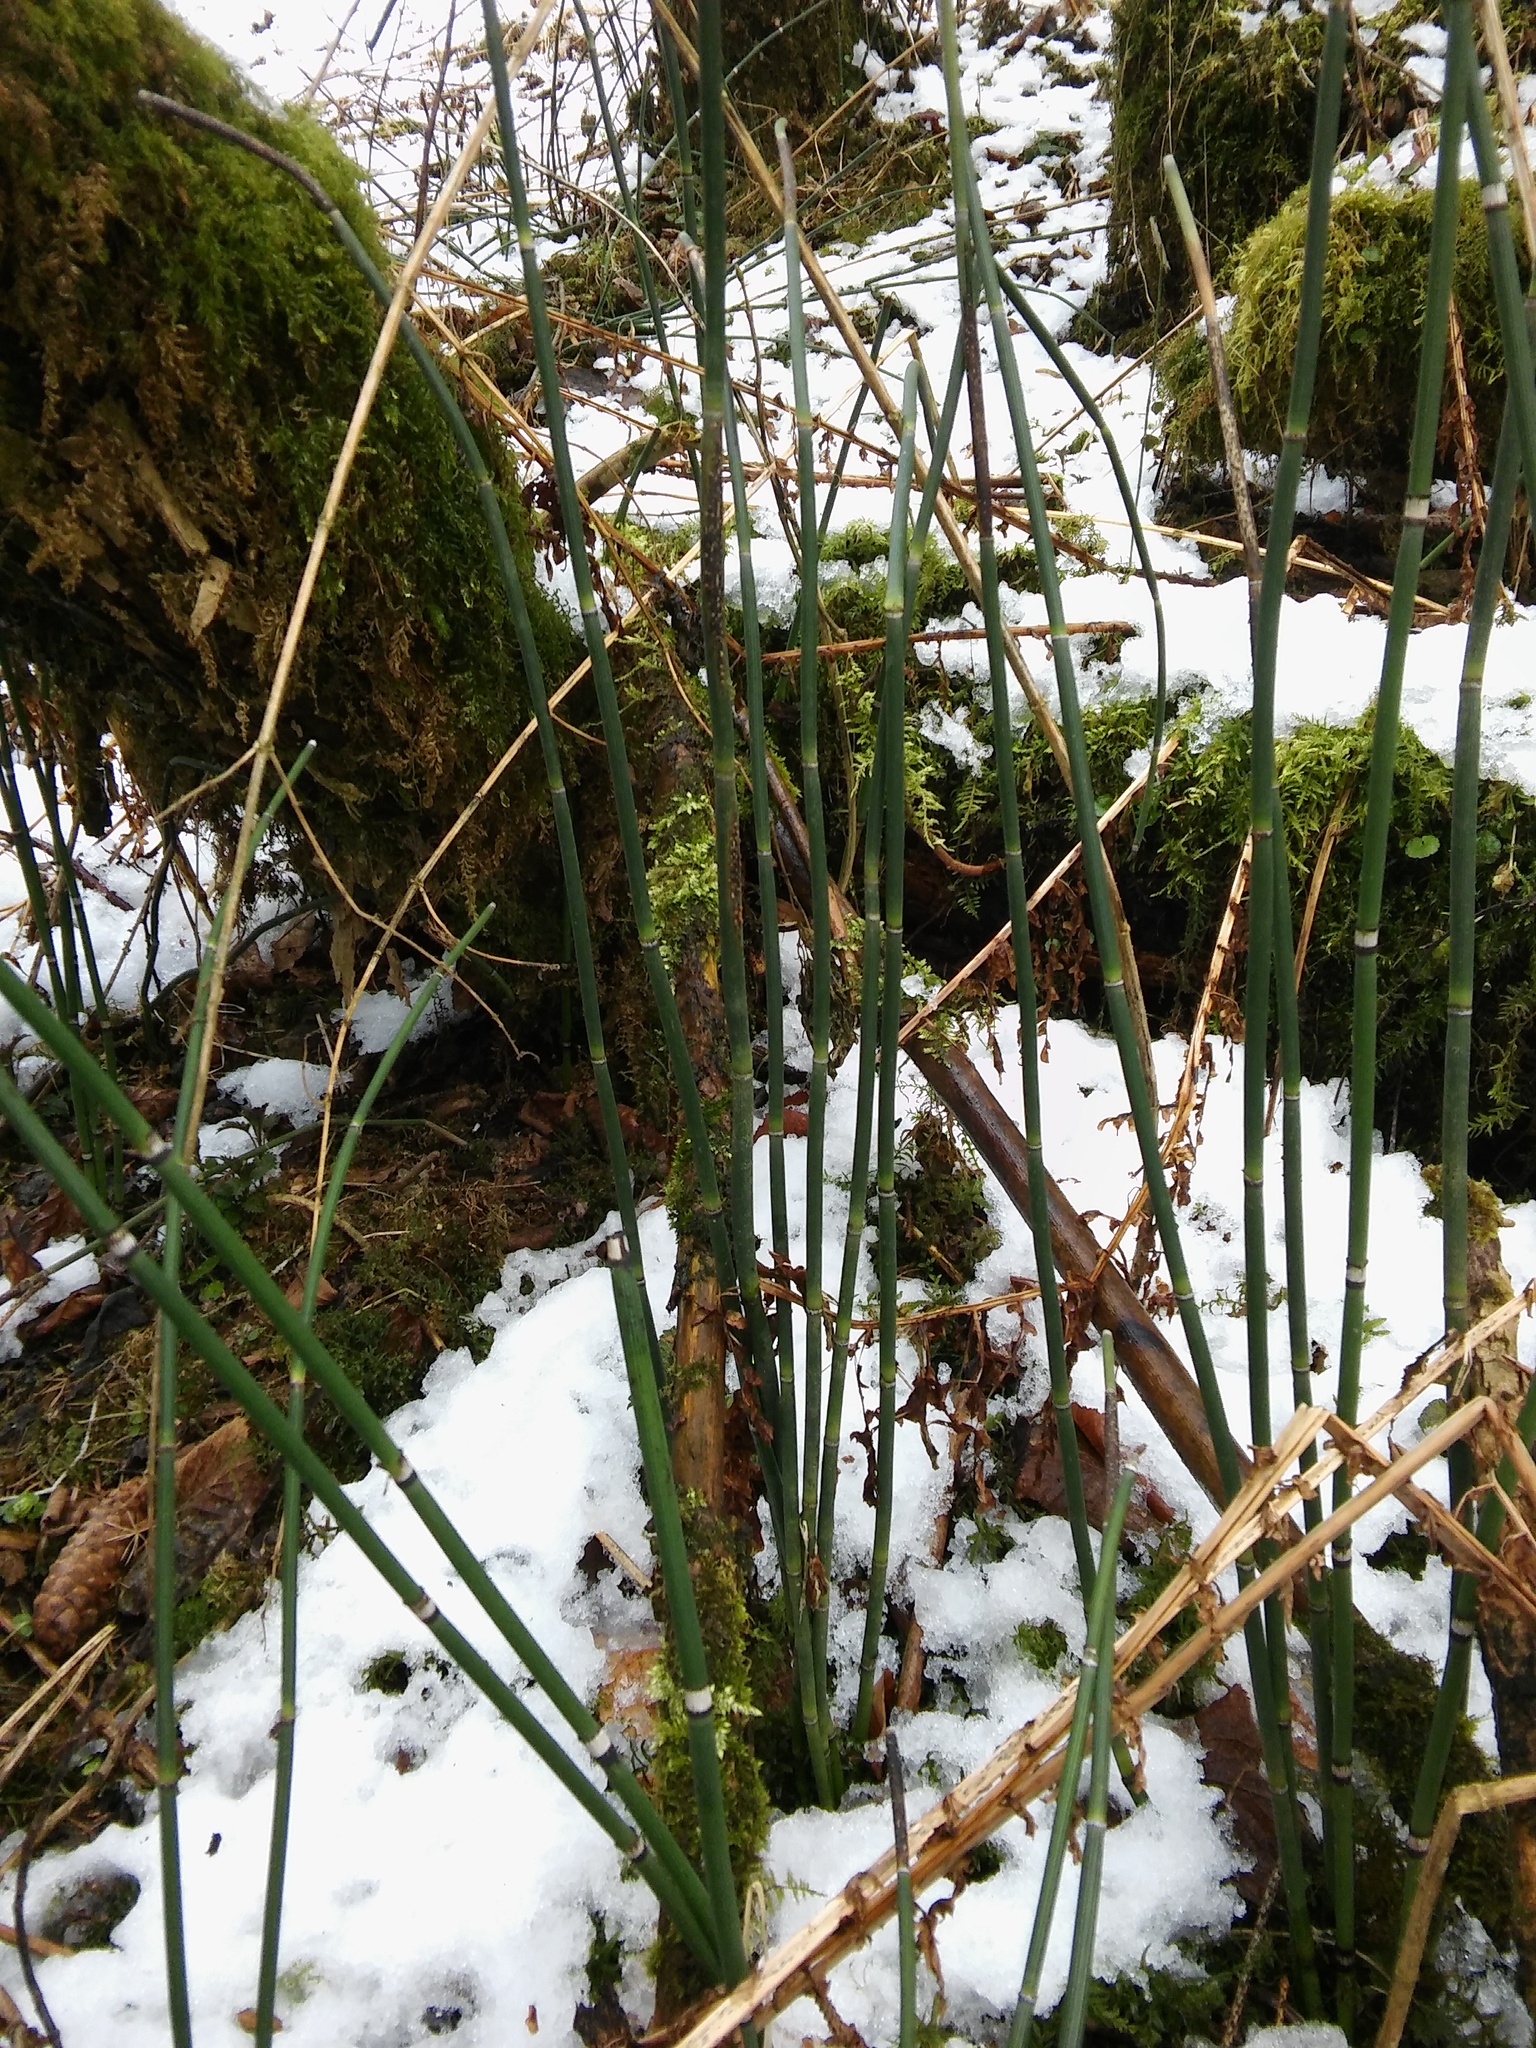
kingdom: Plantae
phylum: Tracheophyta
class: Polypodiopsida
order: Equisetales
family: Equisetaceae
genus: Equisetum
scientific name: Equisetum hyemale
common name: Rough horsetail
